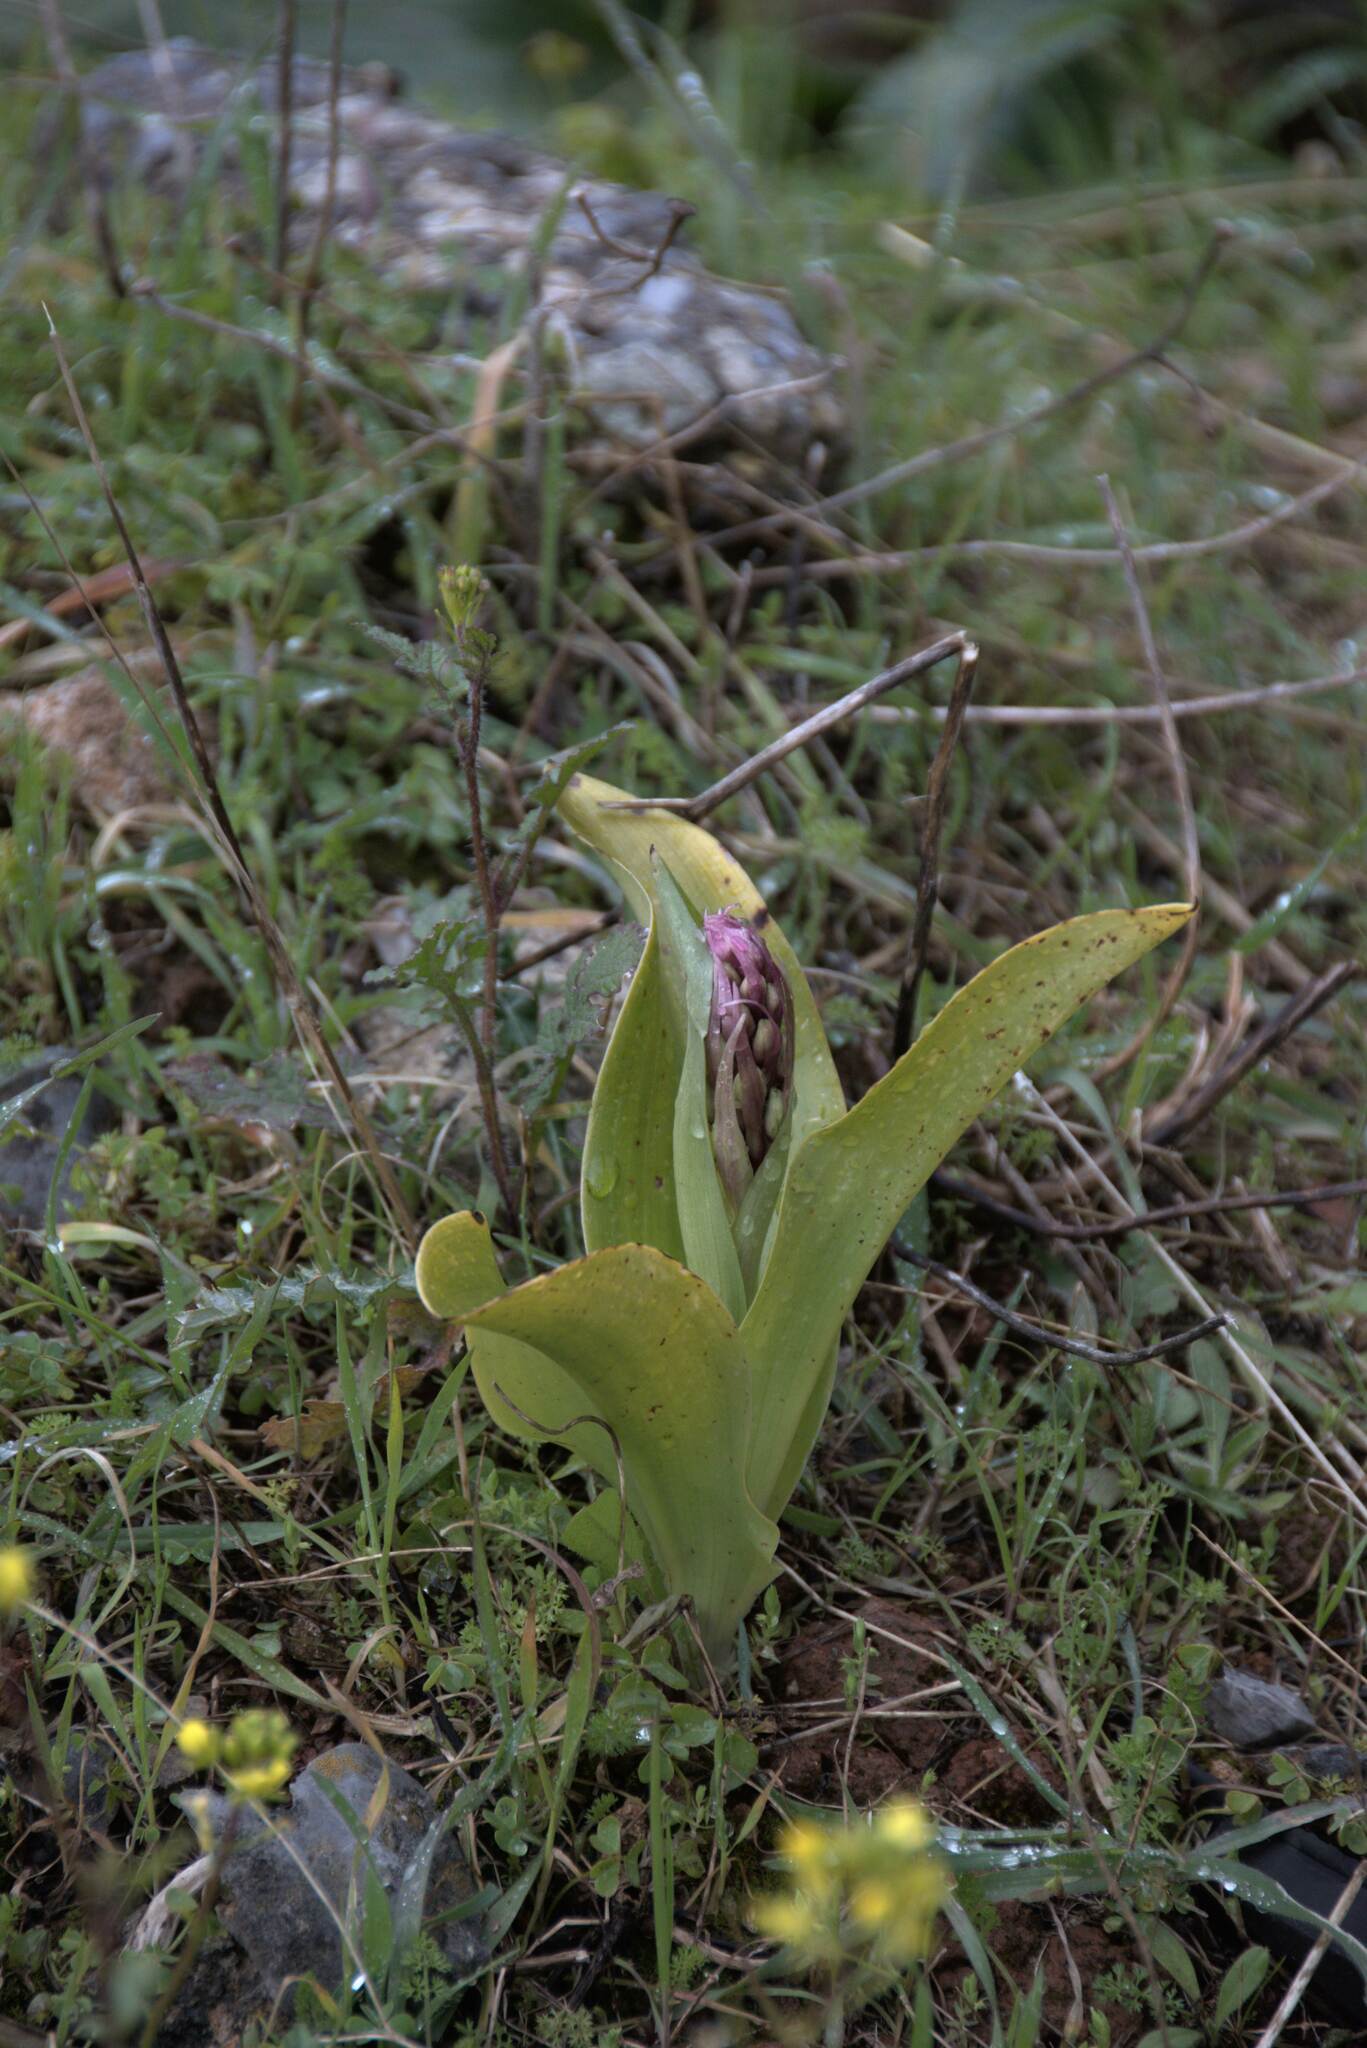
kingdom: Plantae
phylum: Tracheophyta
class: Liliopsida
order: Asparagales
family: Orchidaceae
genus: Himantoglossum
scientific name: Himantoglossum robertianum
